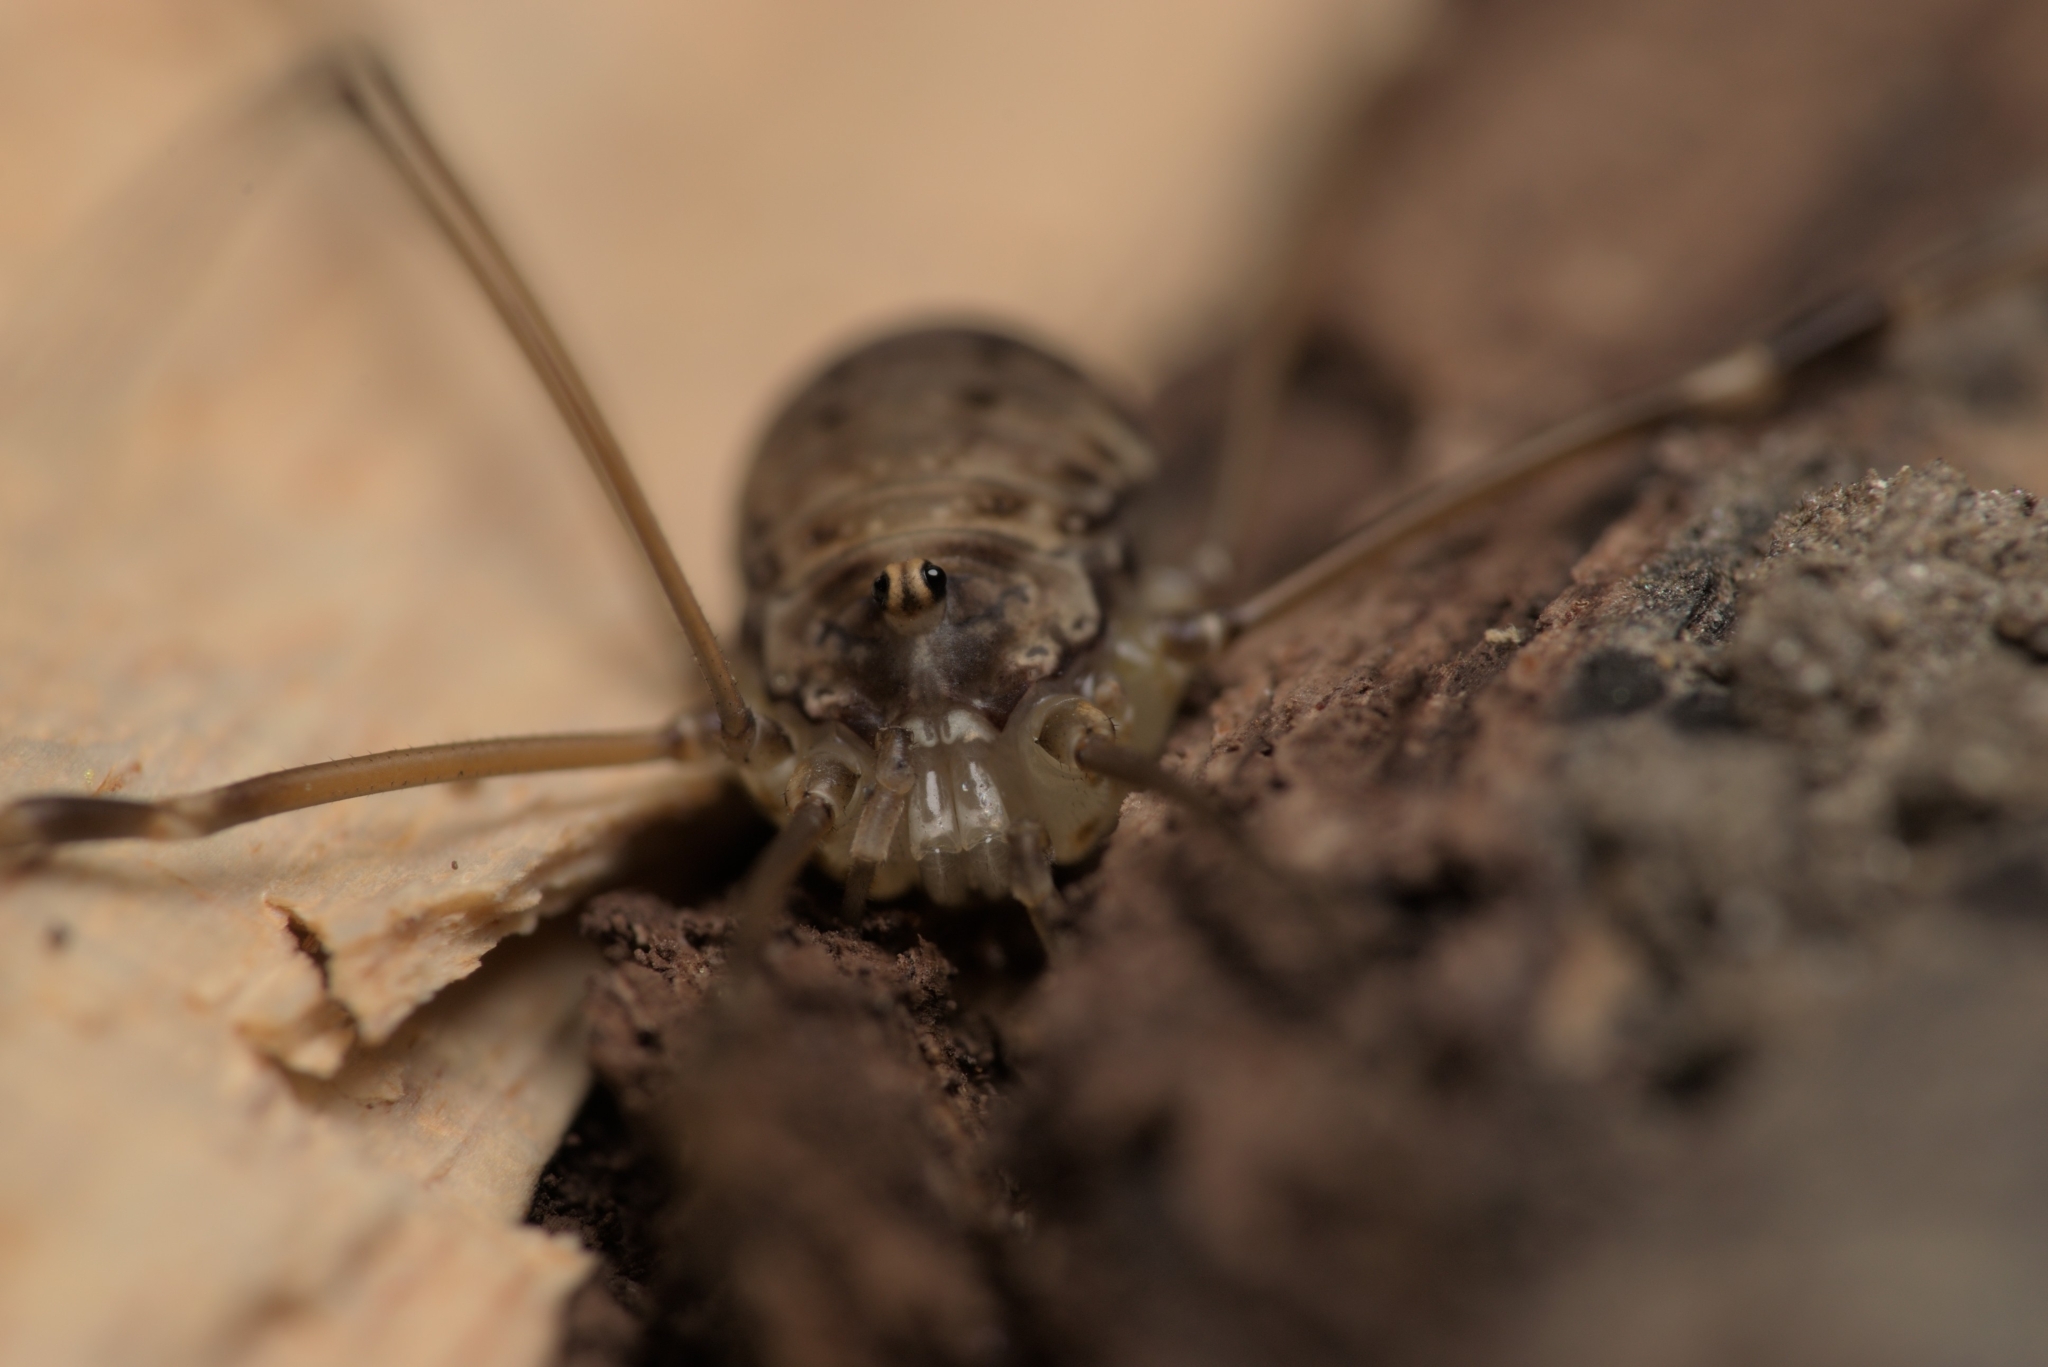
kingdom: Animalia
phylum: Arthropoda
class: Arachnida
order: Opiliones
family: Sclerosomatidae
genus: Leiobunum
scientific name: Leiobunum blackwalli
